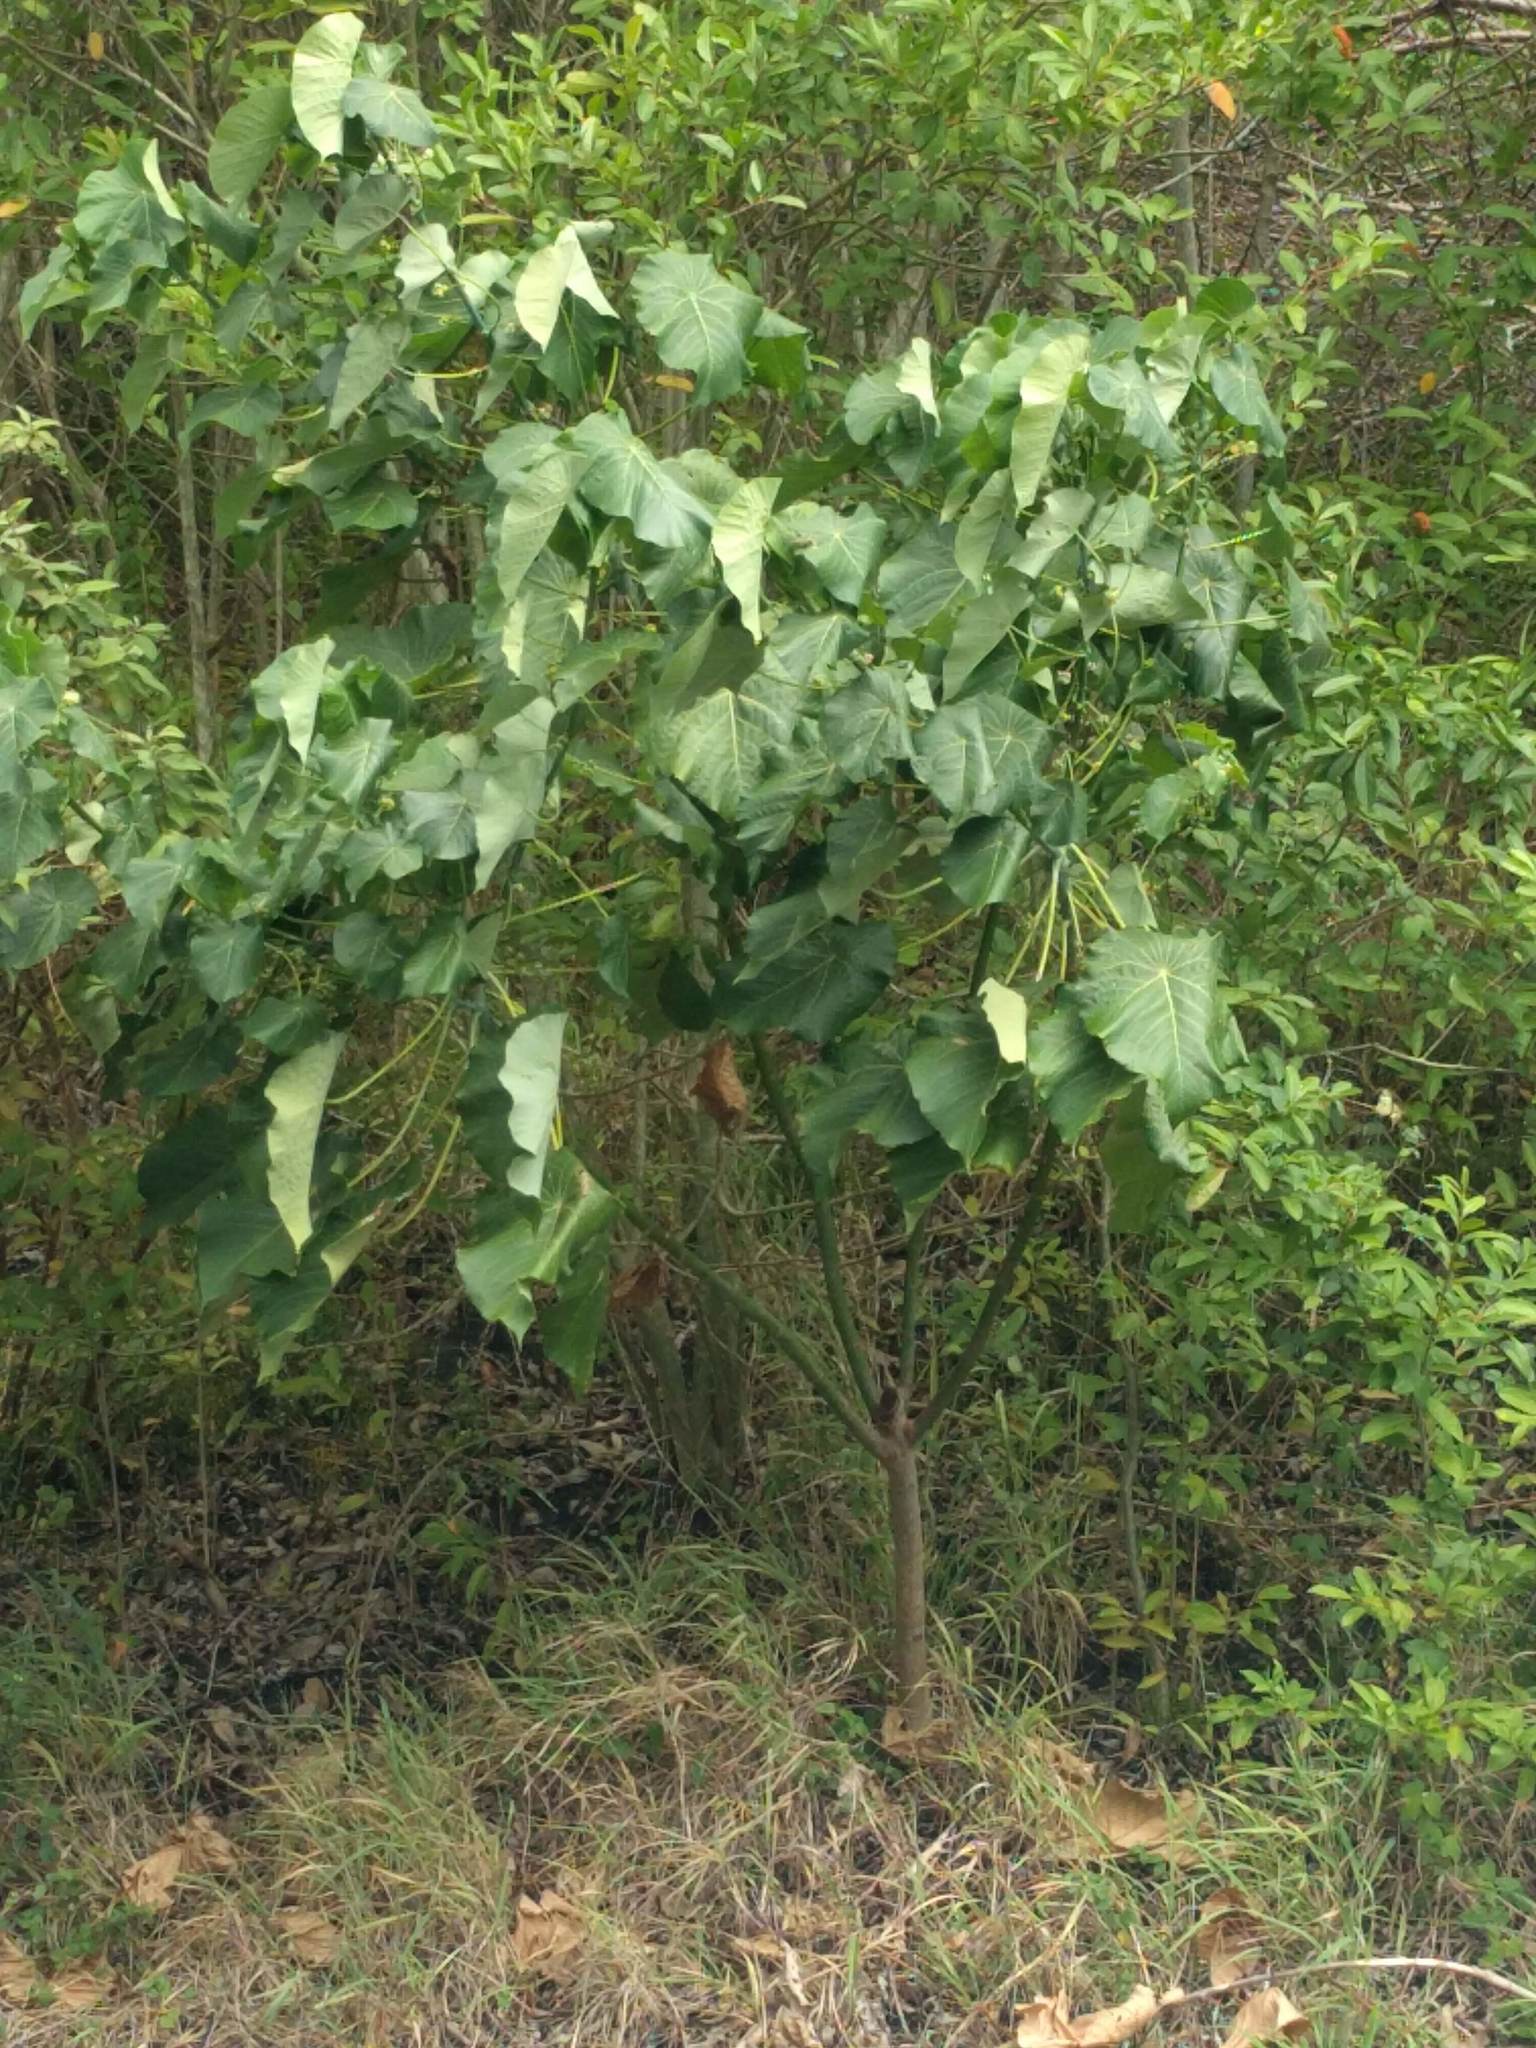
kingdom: Plantae
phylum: Tracheophyta
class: Magnoliopsida
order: Malpighiales
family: Euphorbiaceae
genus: Macaranga
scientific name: Macaranga tanarius
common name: Parasol leaf tree
